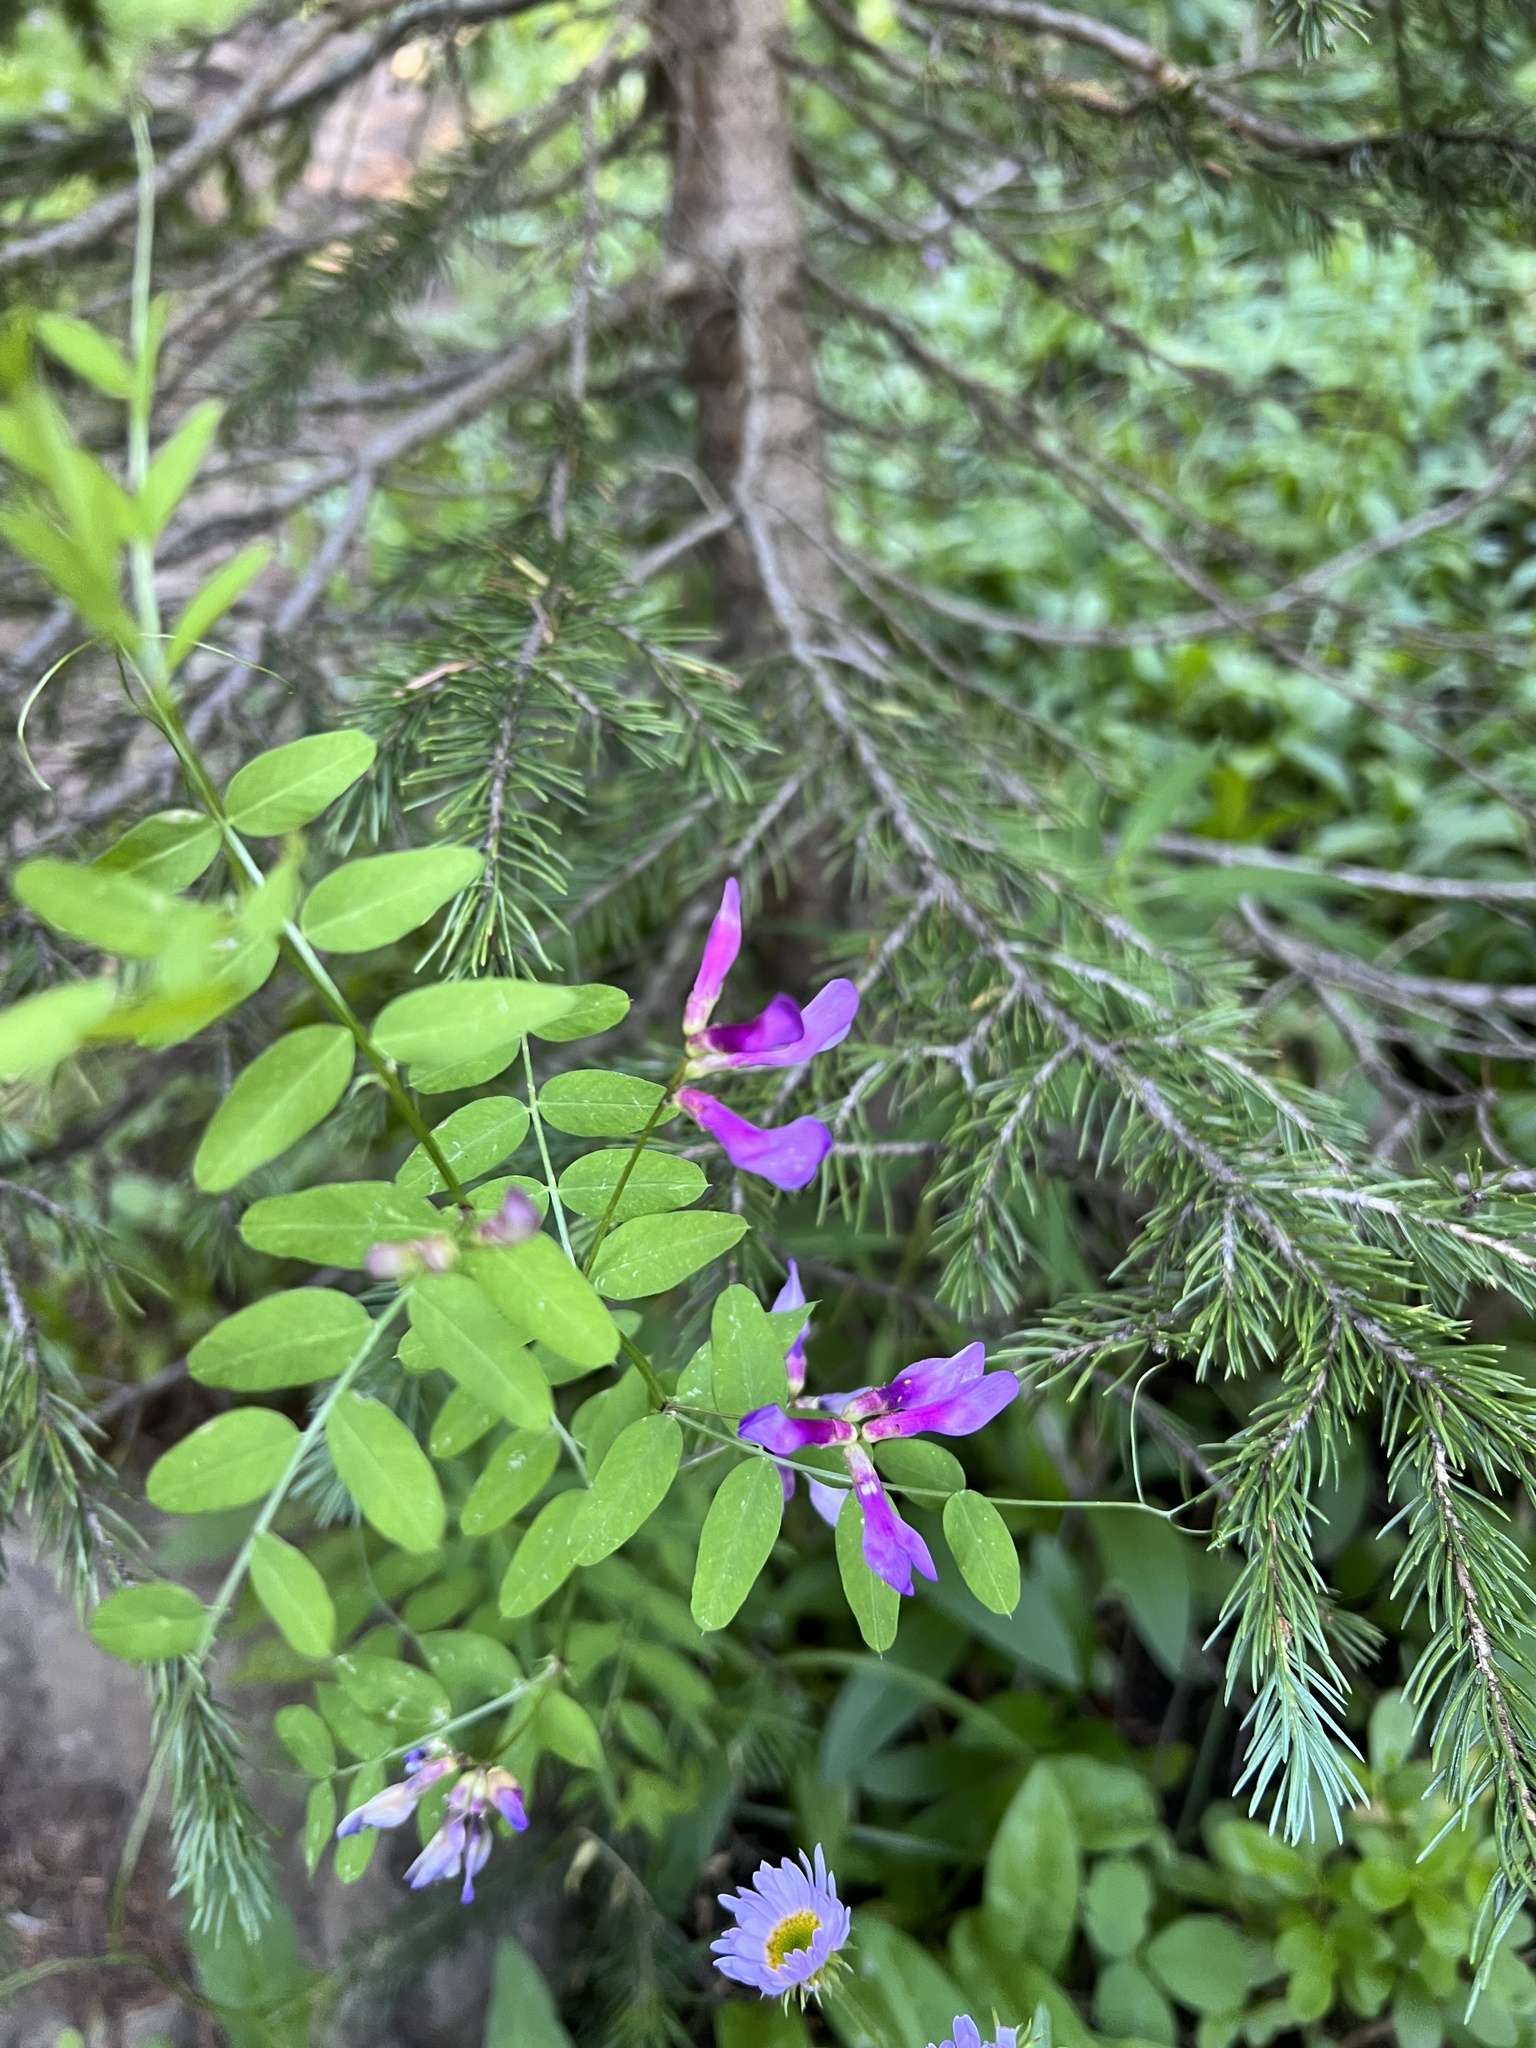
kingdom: Plantae
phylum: Tracheophyta
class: Magnoliopsida
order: Fabales
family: Fabaceae
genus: Vicia
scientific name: Vicia americana
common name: American vetch
